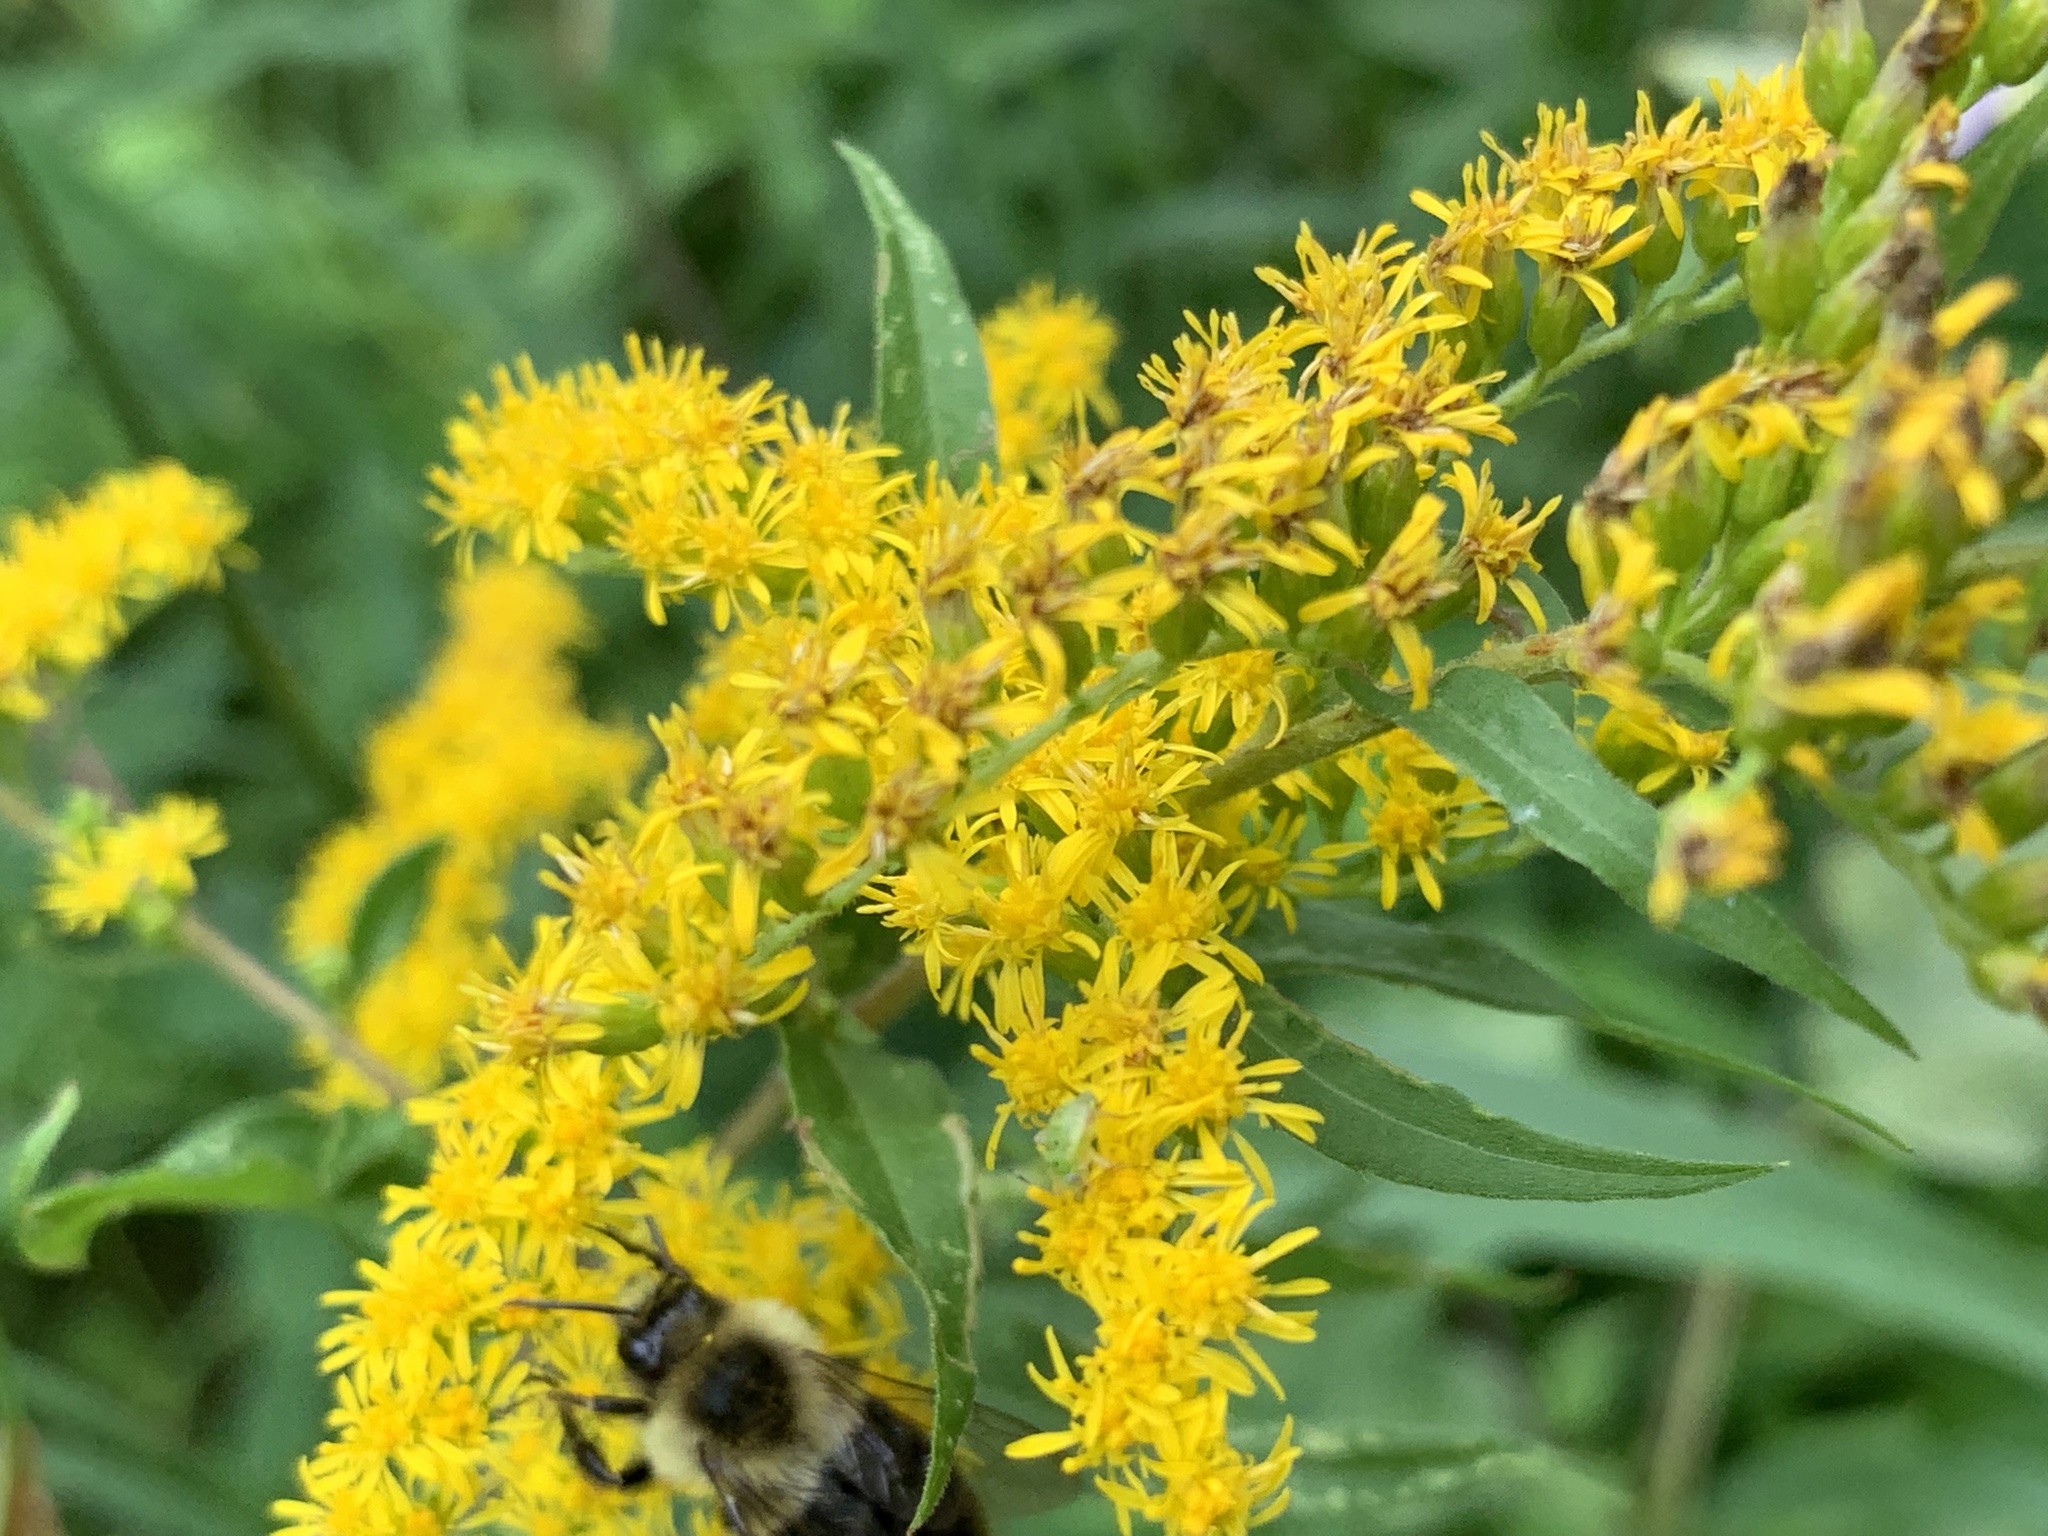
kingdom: Animalia
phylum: Arthropoda
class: Insecta
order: Hymenoptera
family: Apidae
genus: Bombus
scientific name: Bombus impatiens
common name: Common eastern bumble bee
